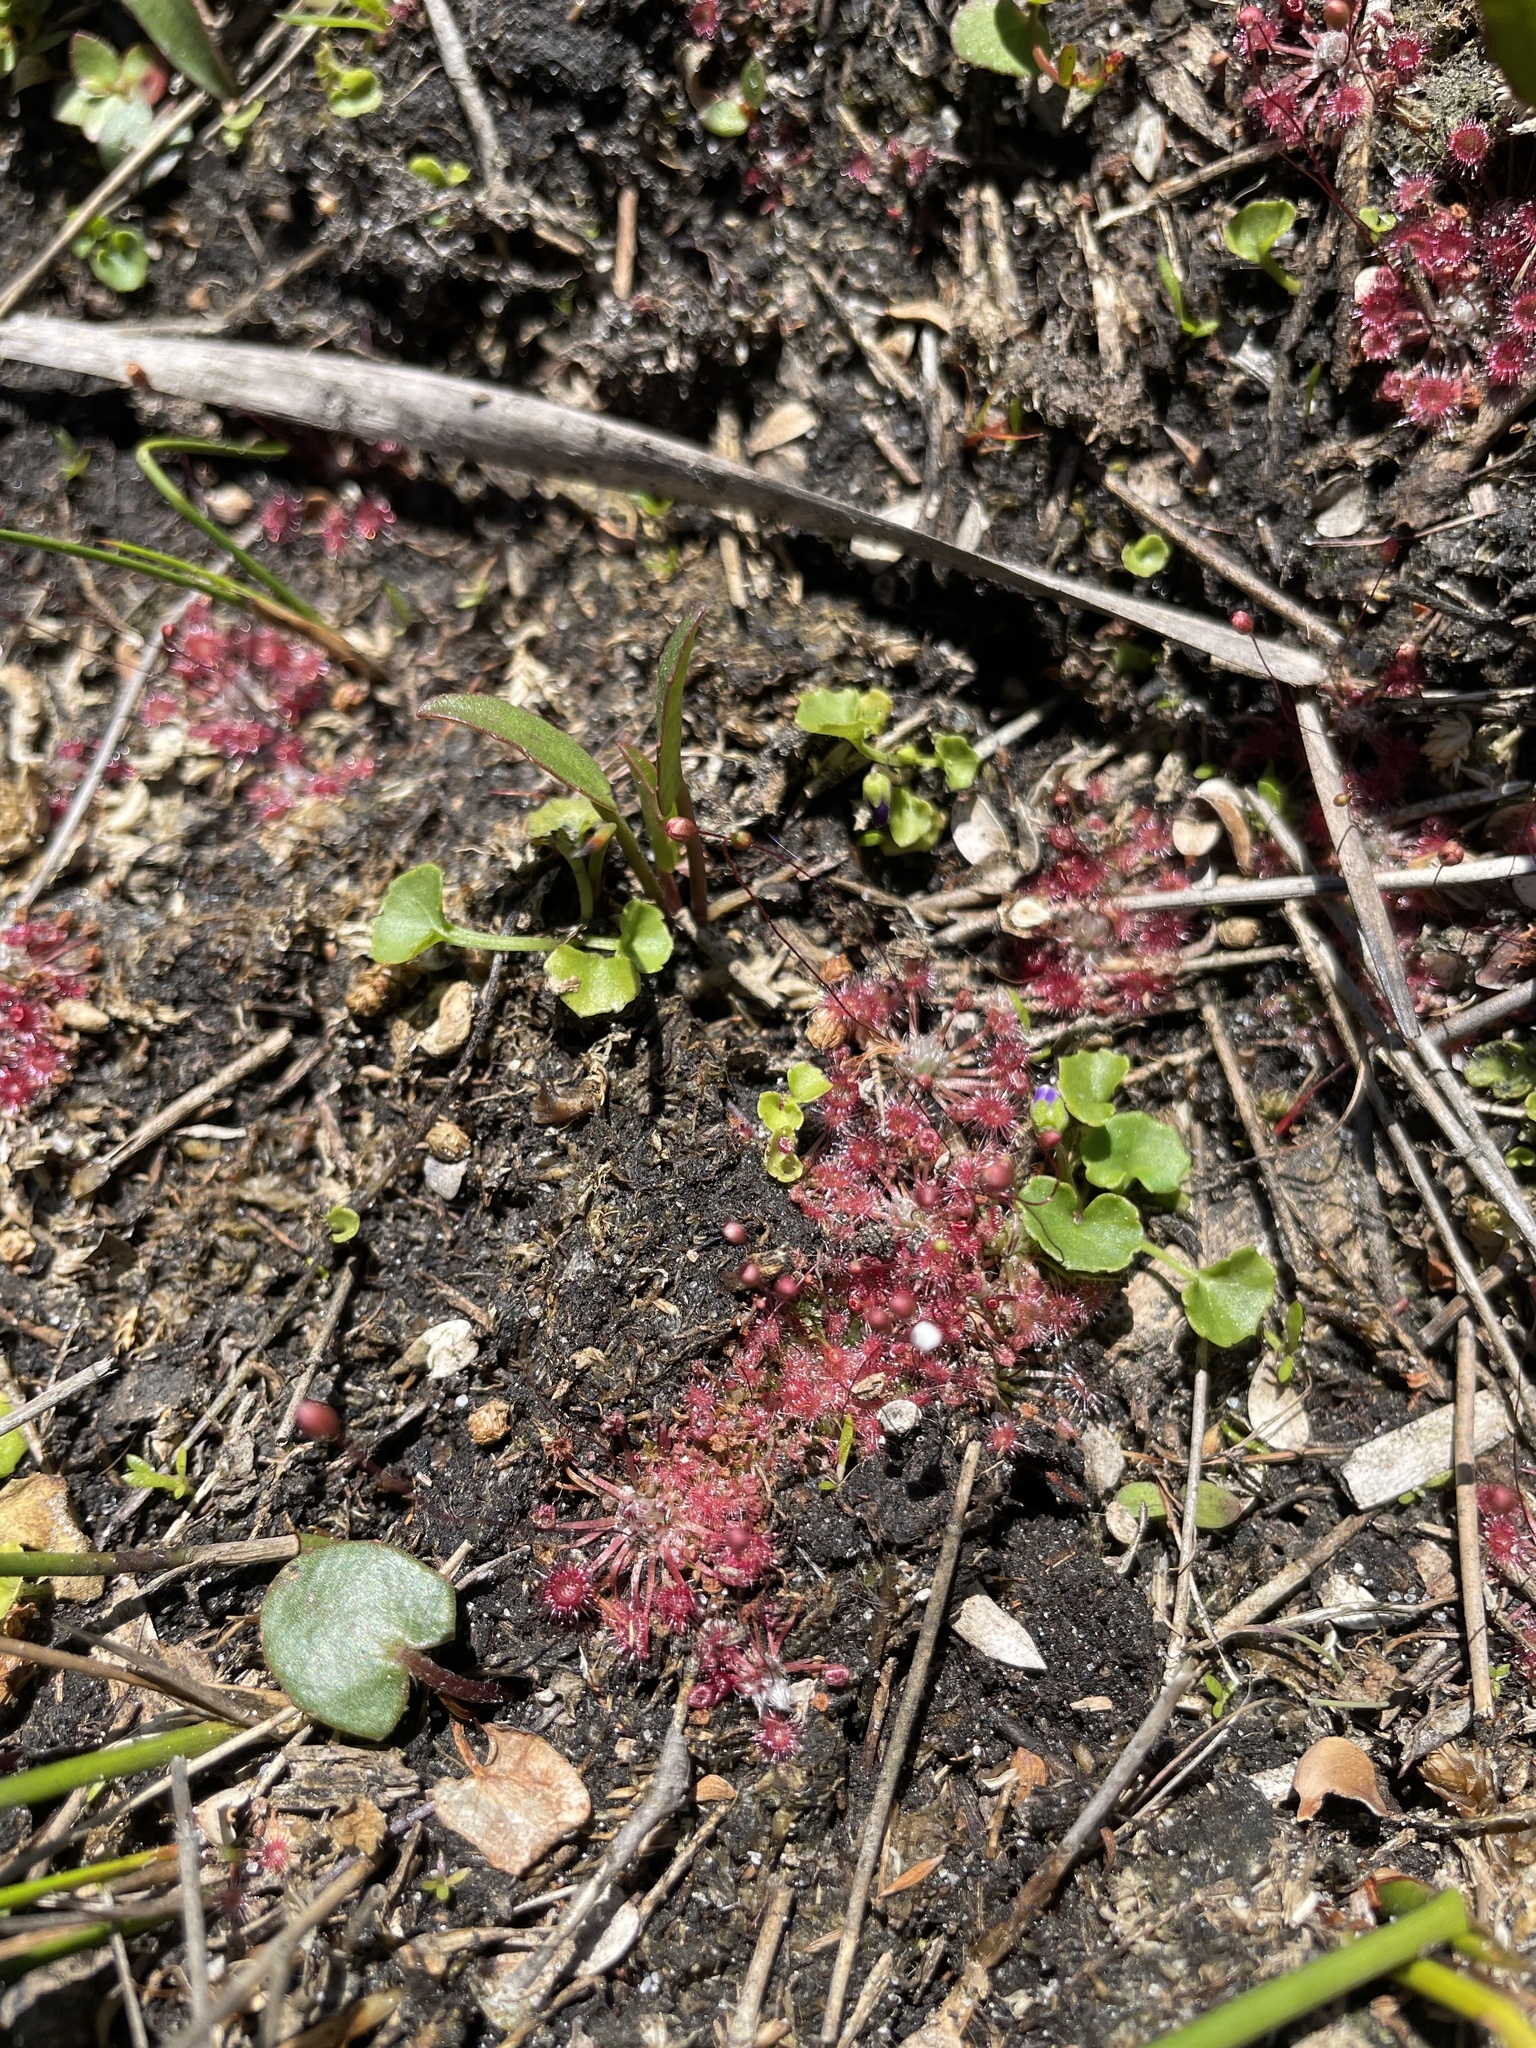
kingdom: Plantae
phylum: Tracheophyta
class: Magnoliopsida
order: Caryophyllales
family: Droseraceae
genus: Drosera
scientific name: Drosera pygmaea
